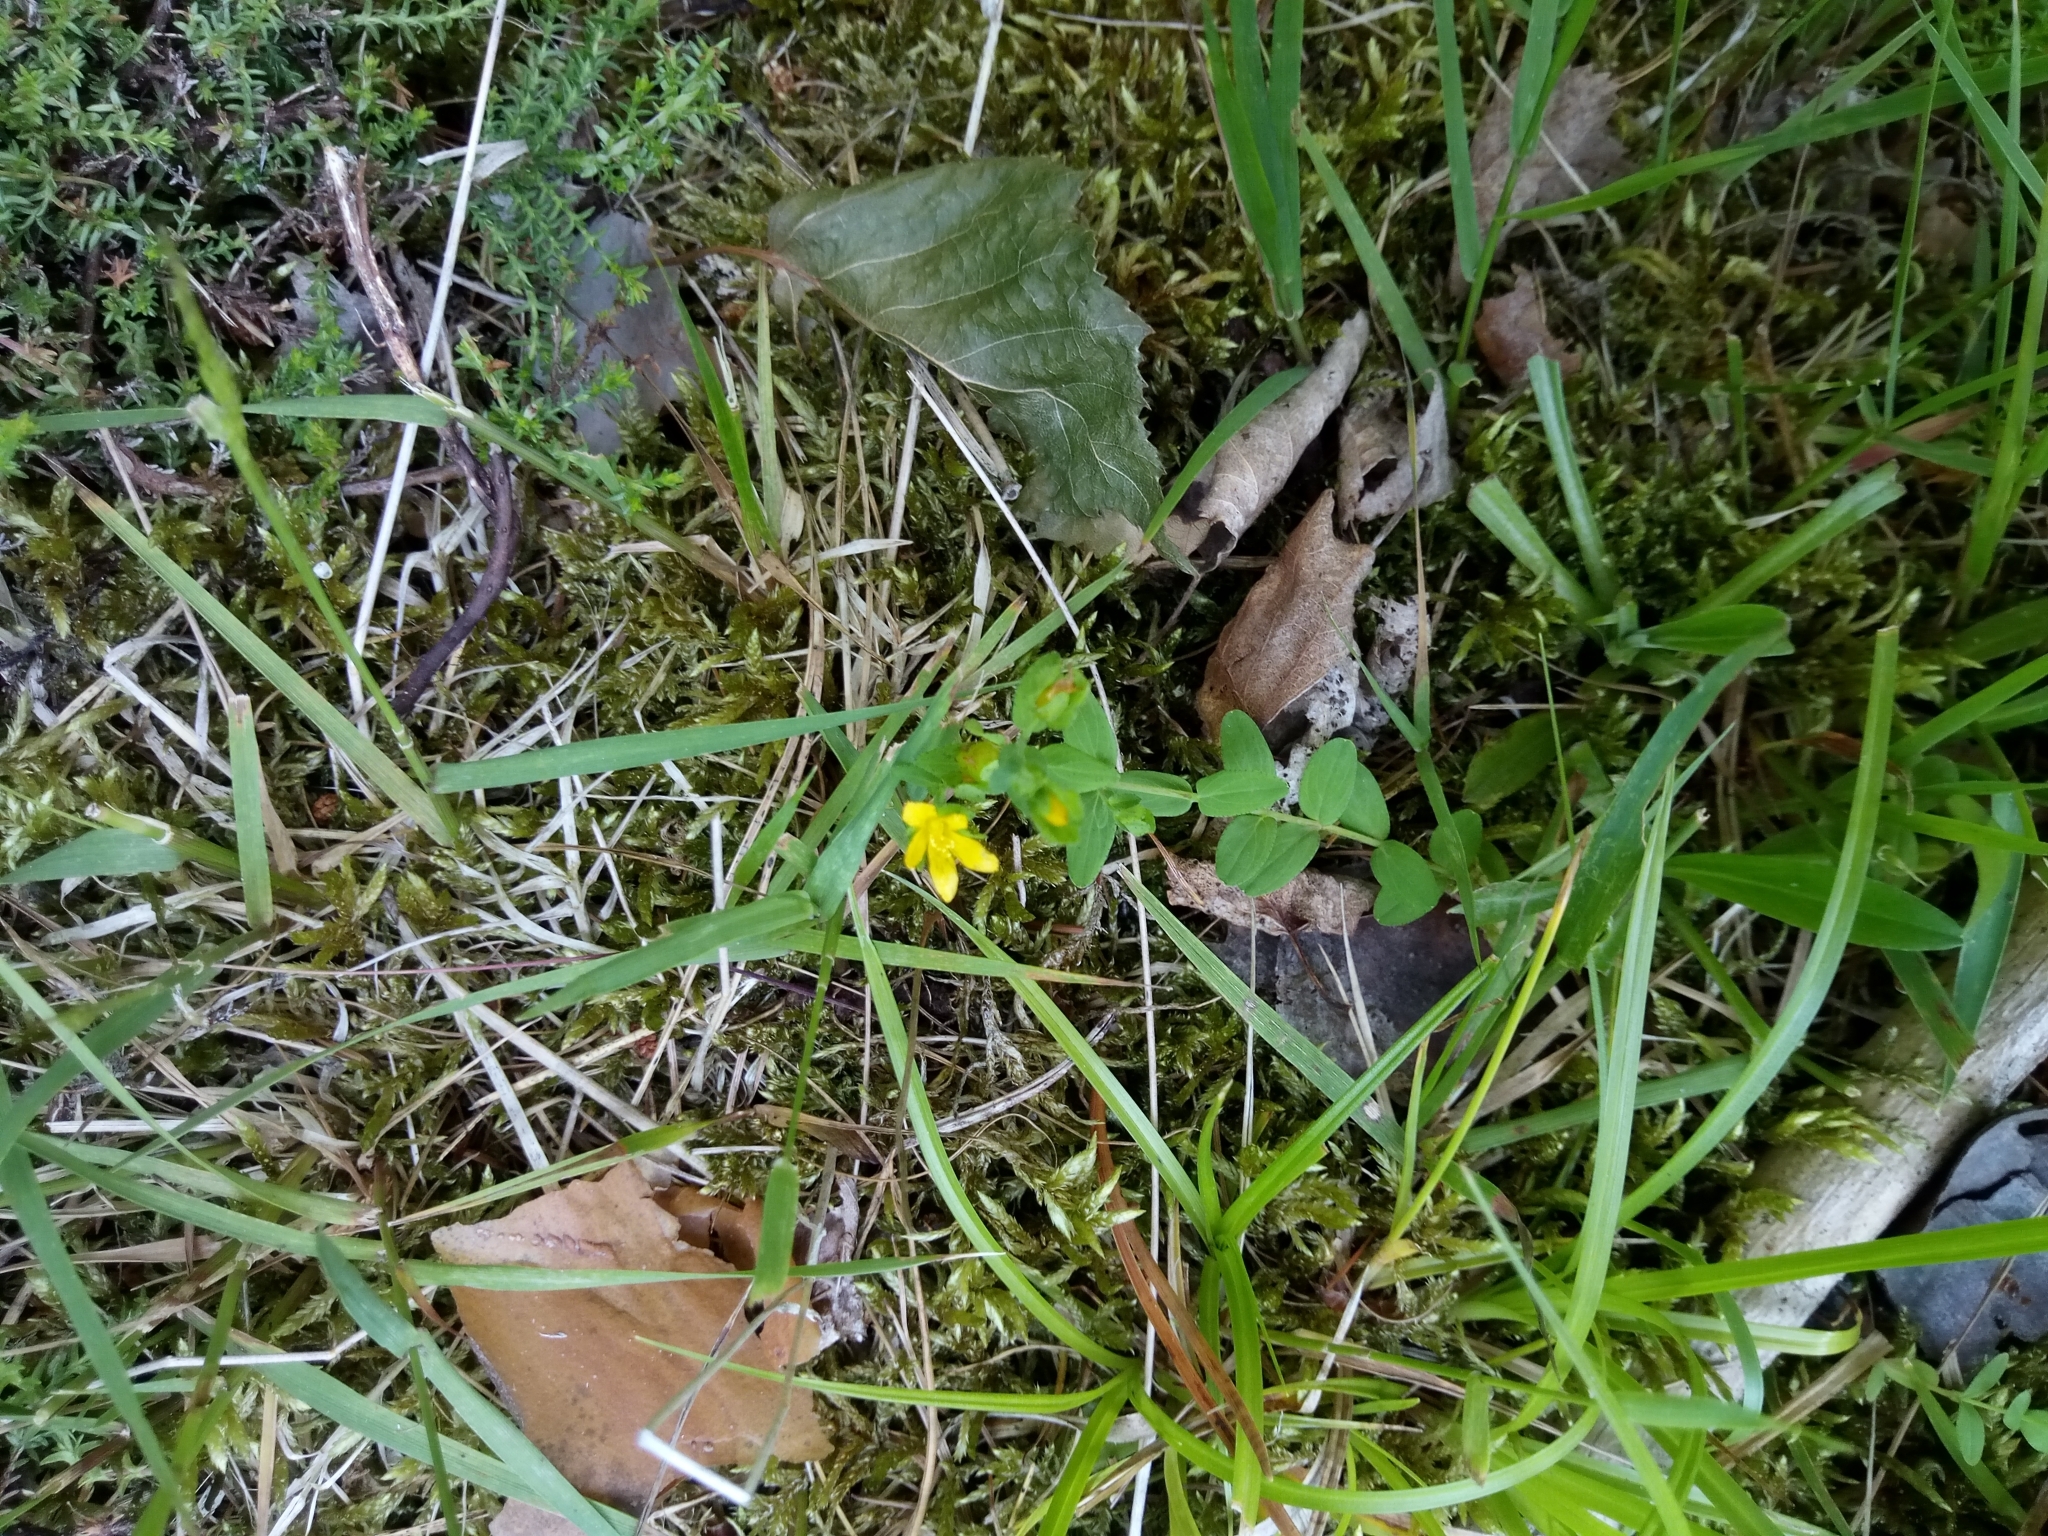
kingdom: Plantae
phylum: Tracheophyta
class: Magnoliopsida
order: Malpighiales
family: Hypericaceae
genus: Hypericum
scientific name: Hypericum humifusum
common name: Trailing st. john's-wort
